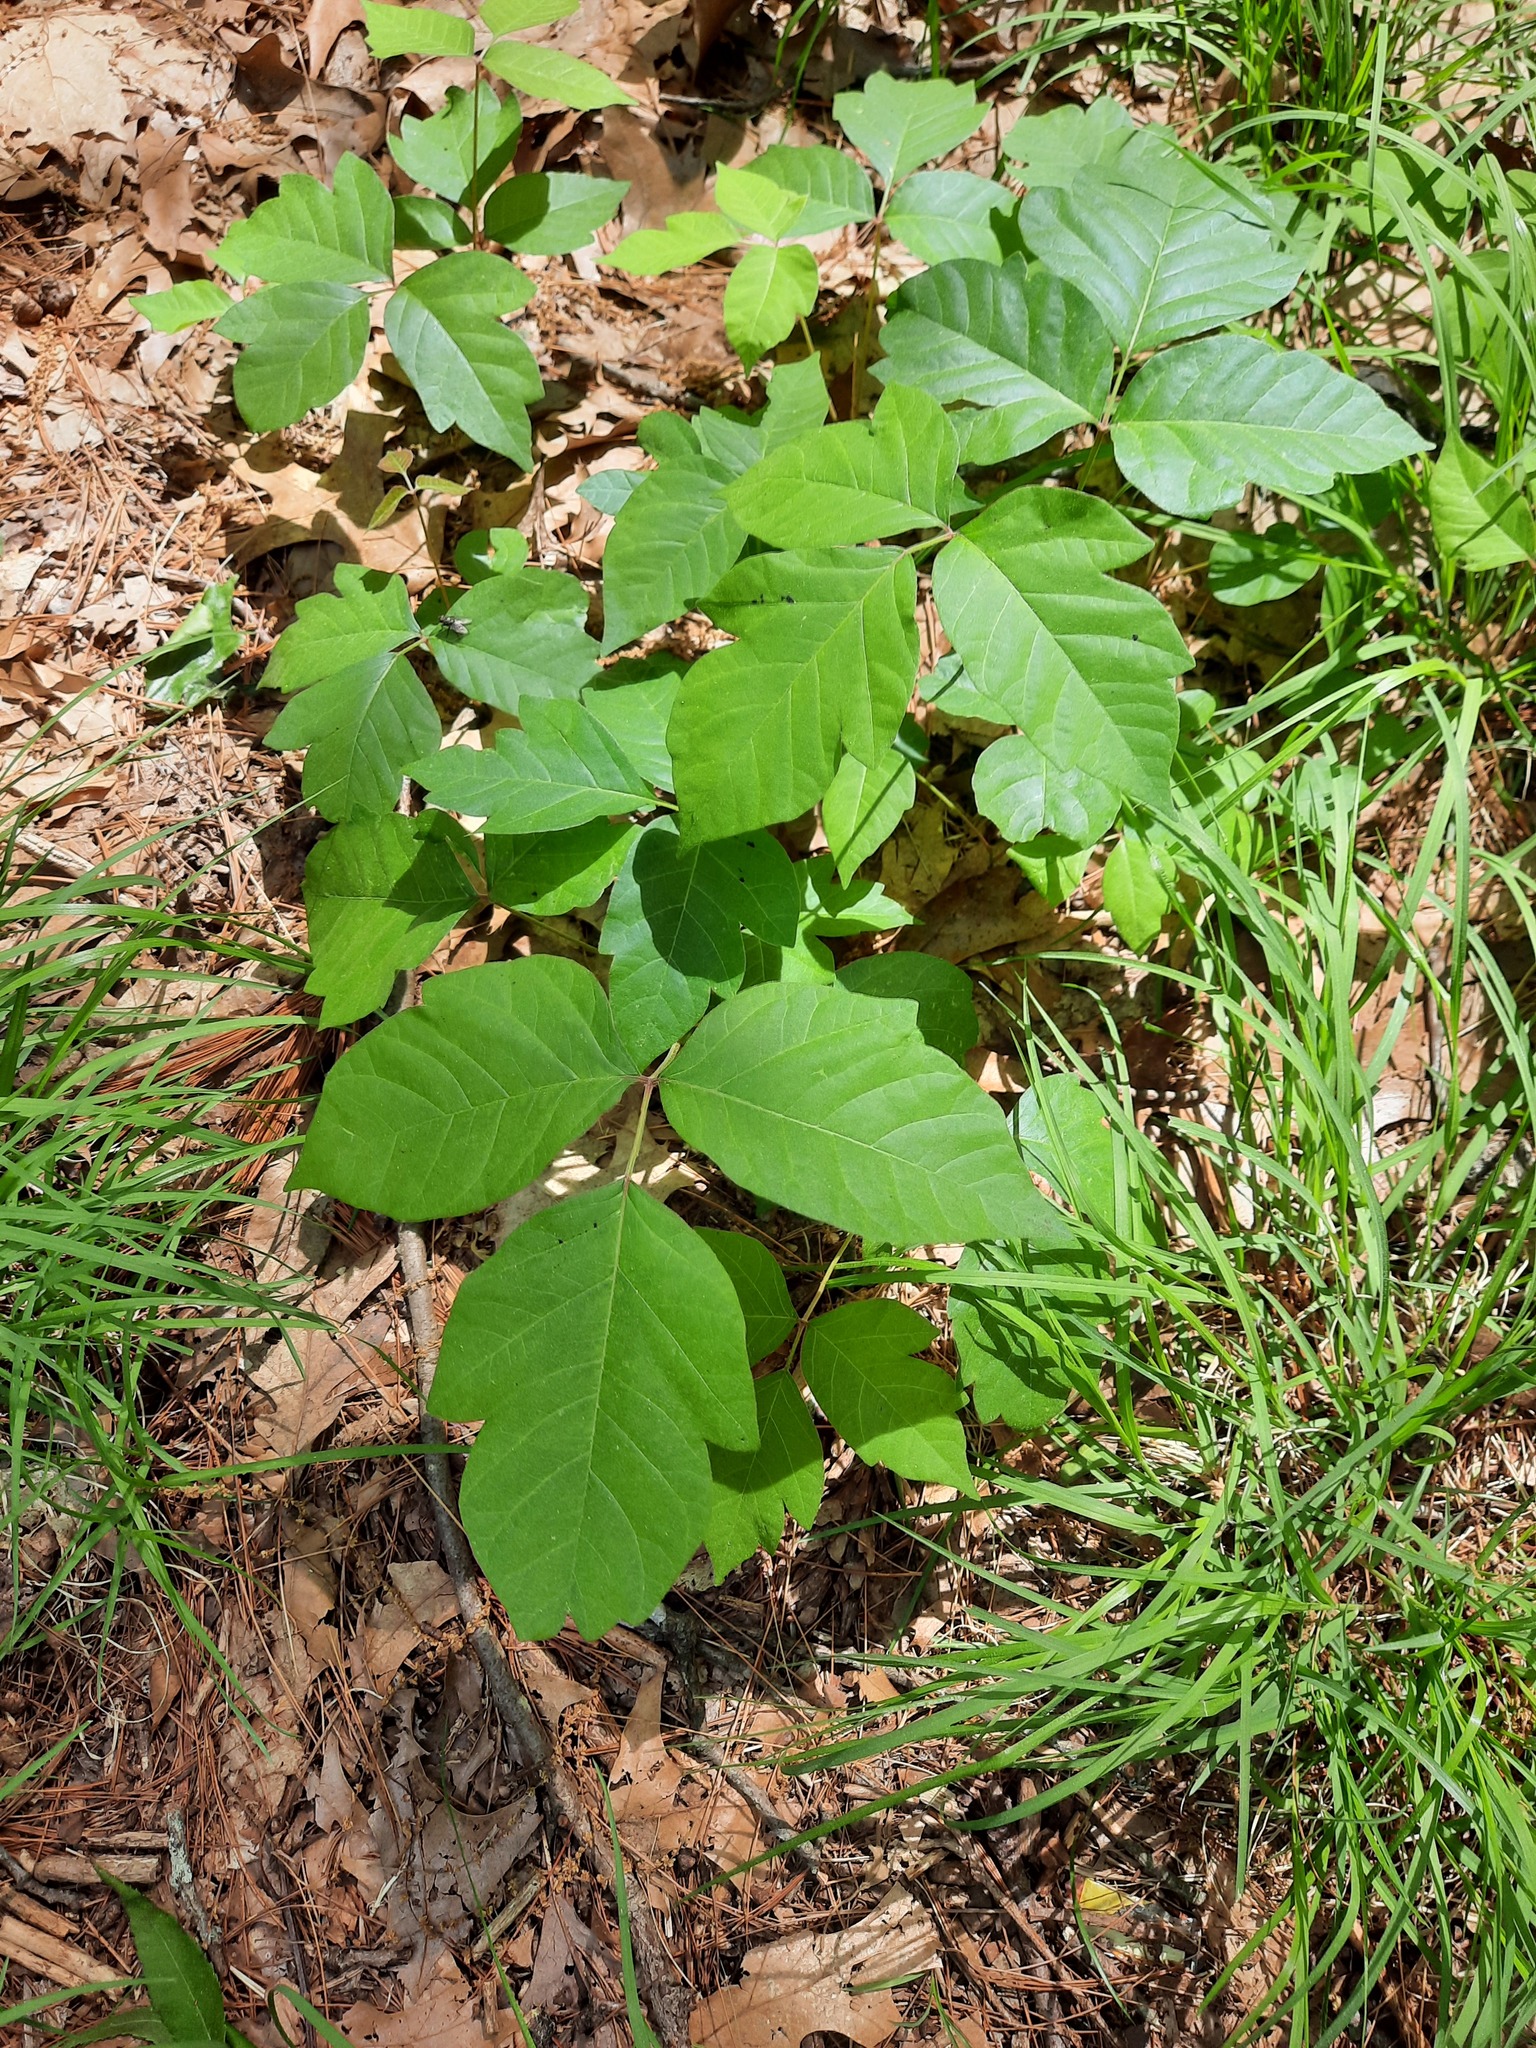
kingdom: Plantae
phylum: Tracheophyta
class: Magnoliopsida
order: Sapindales
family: Anacardiaceae
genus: Toxicodendron
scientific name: Toxicodendron radicans
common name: Poison ivy
